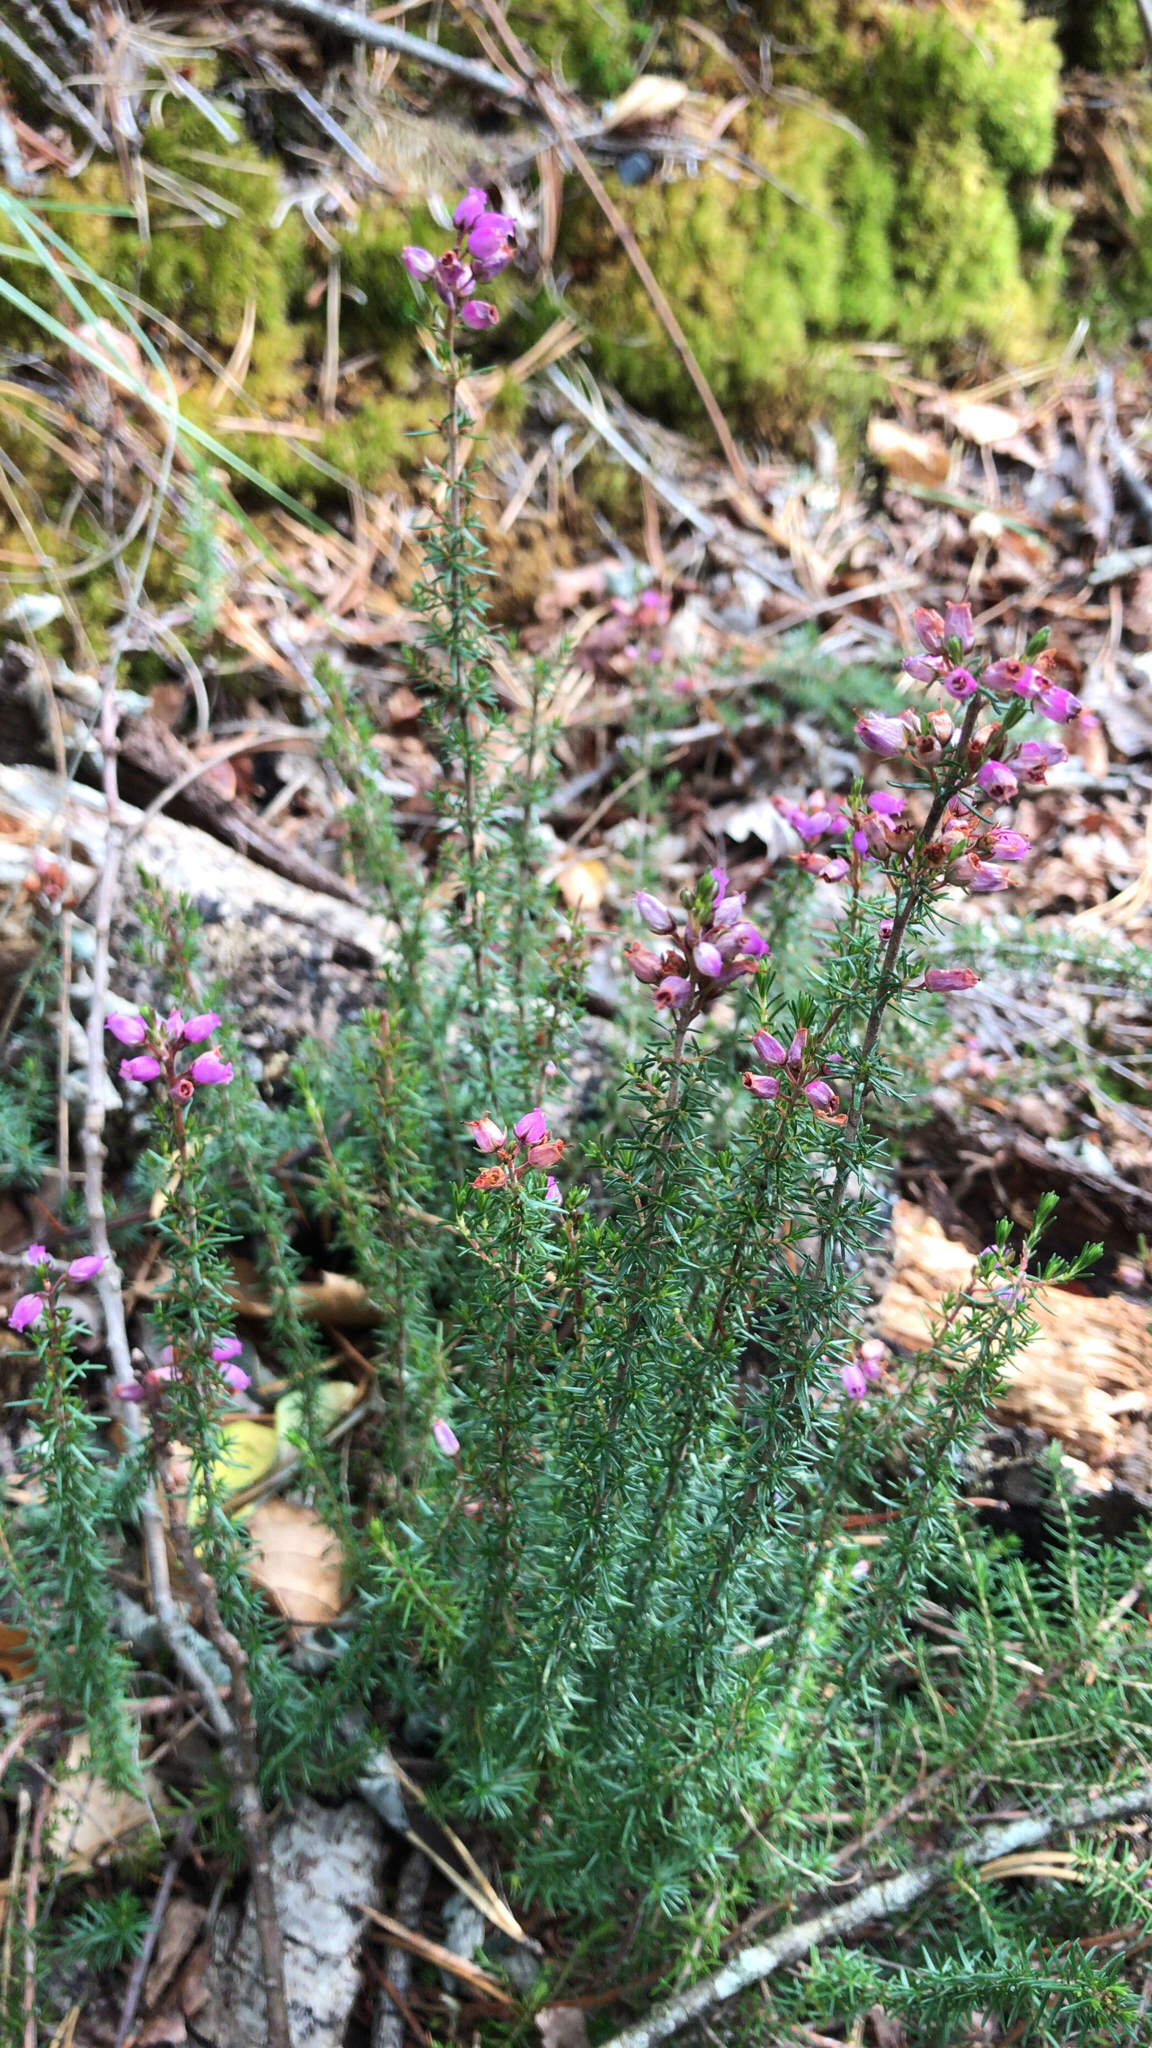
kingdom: Plantae
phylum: Tracheophyta
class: Magnoliopsida
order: Ericales
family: Ericaceae
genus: Erica
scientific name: Erica cinerea
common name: Bell heather
